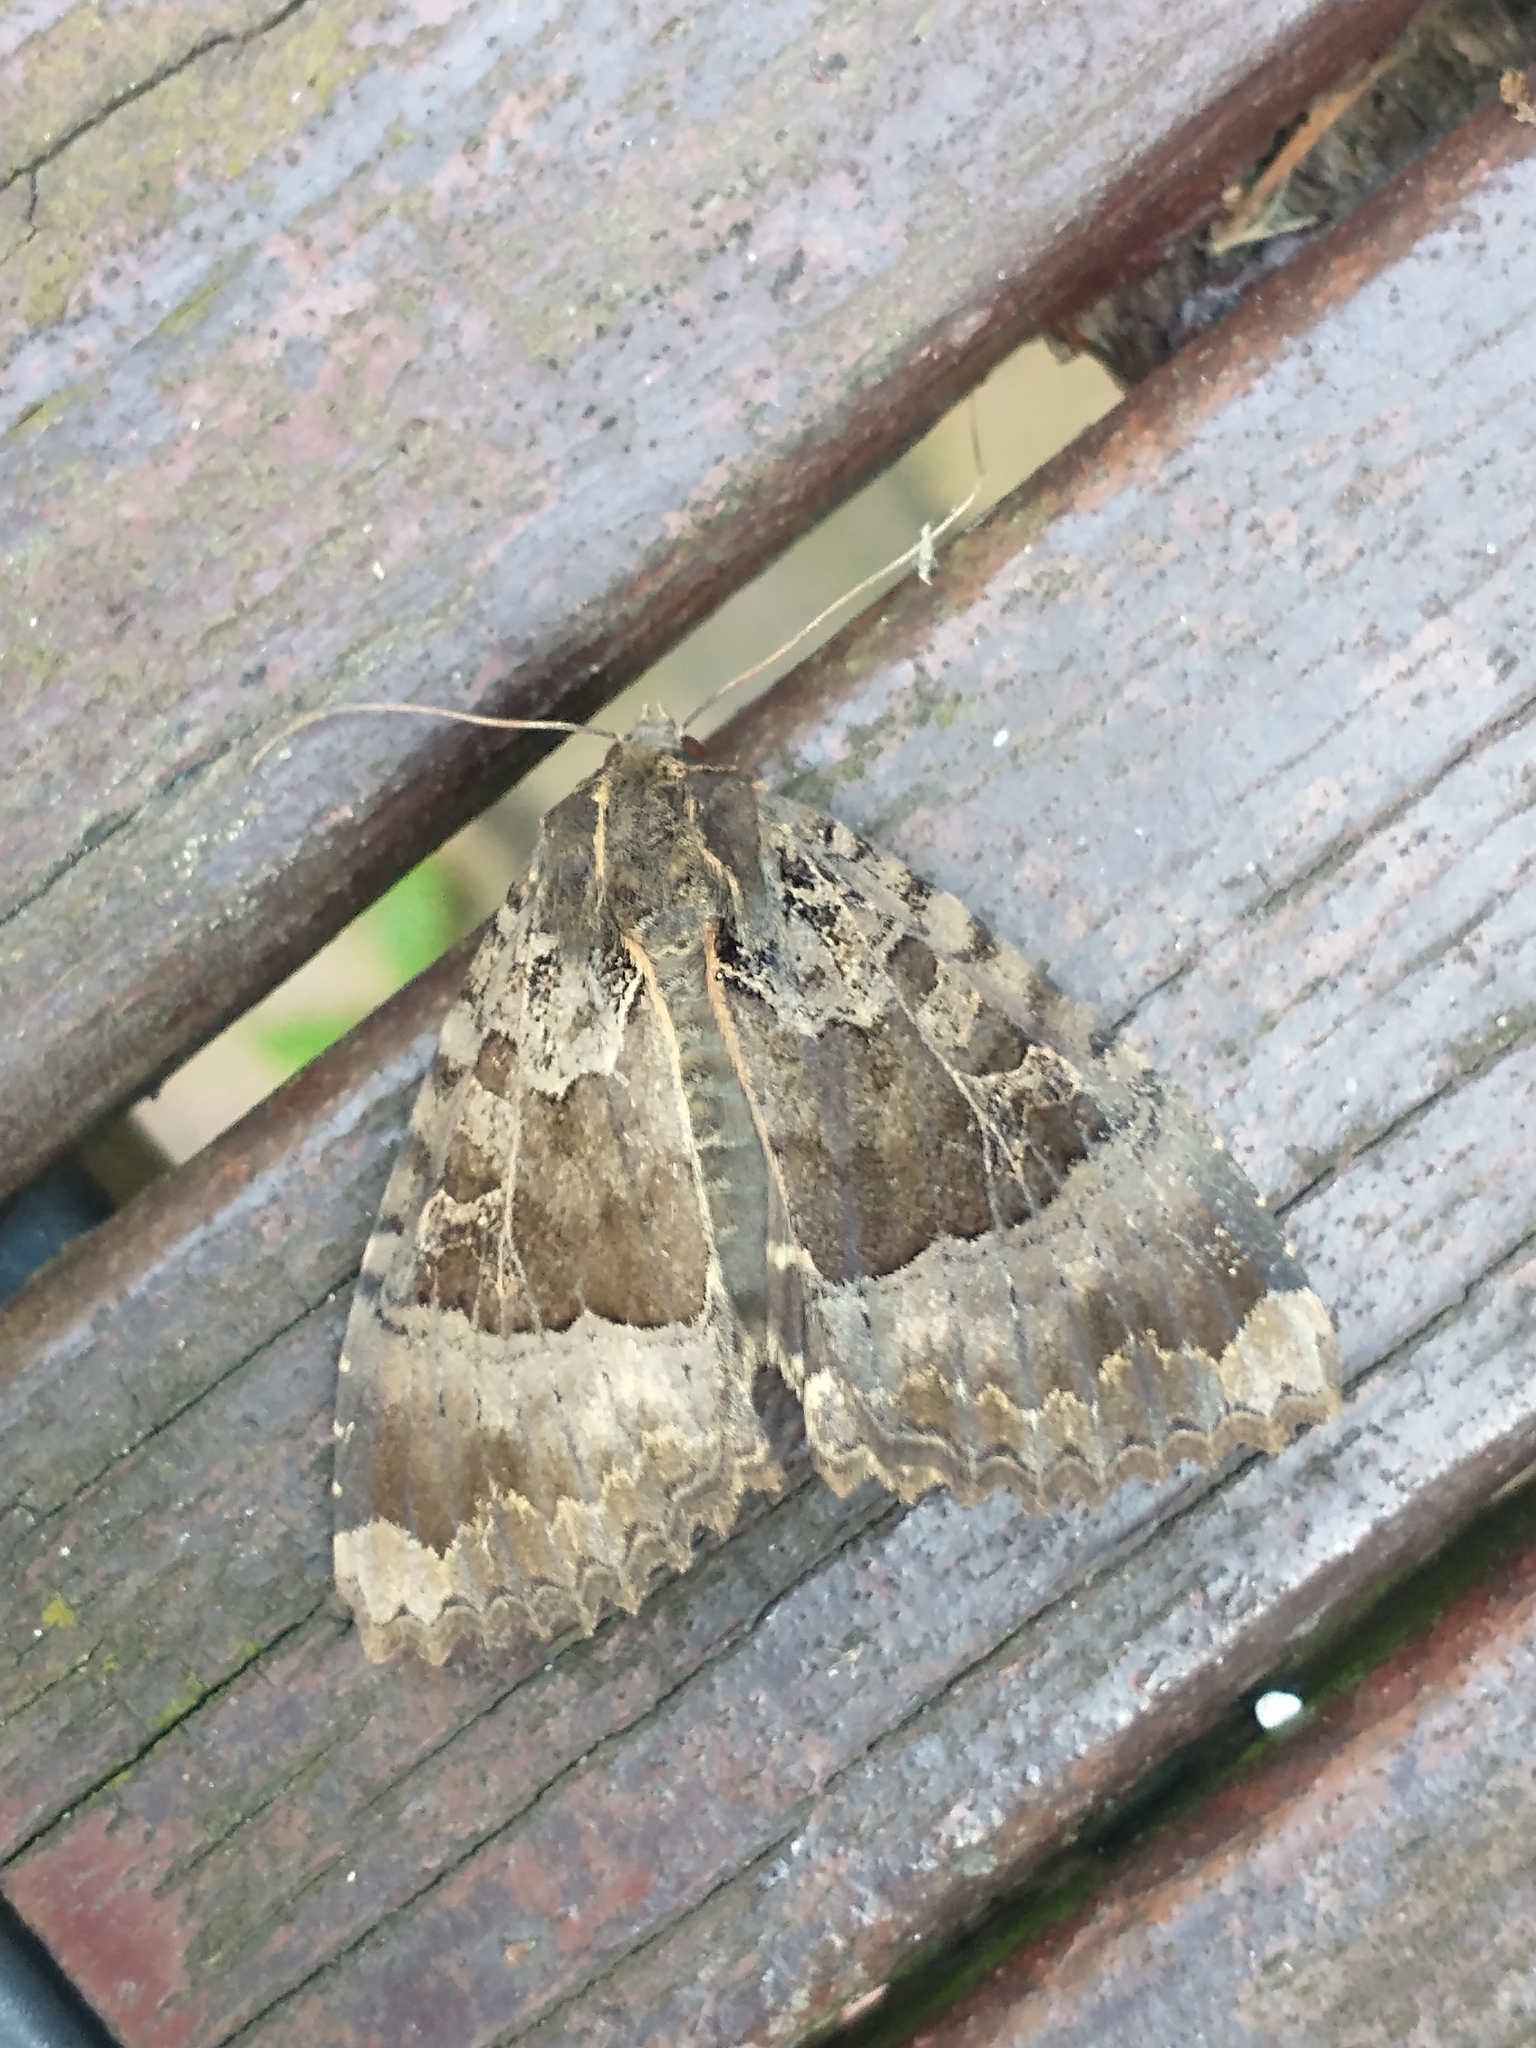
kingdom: Animalia
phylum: Arthropoda
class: Insecta
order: Lepidoptera
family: Noctuidae
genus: Mormo
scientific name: Mormo maura
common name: Old lady
